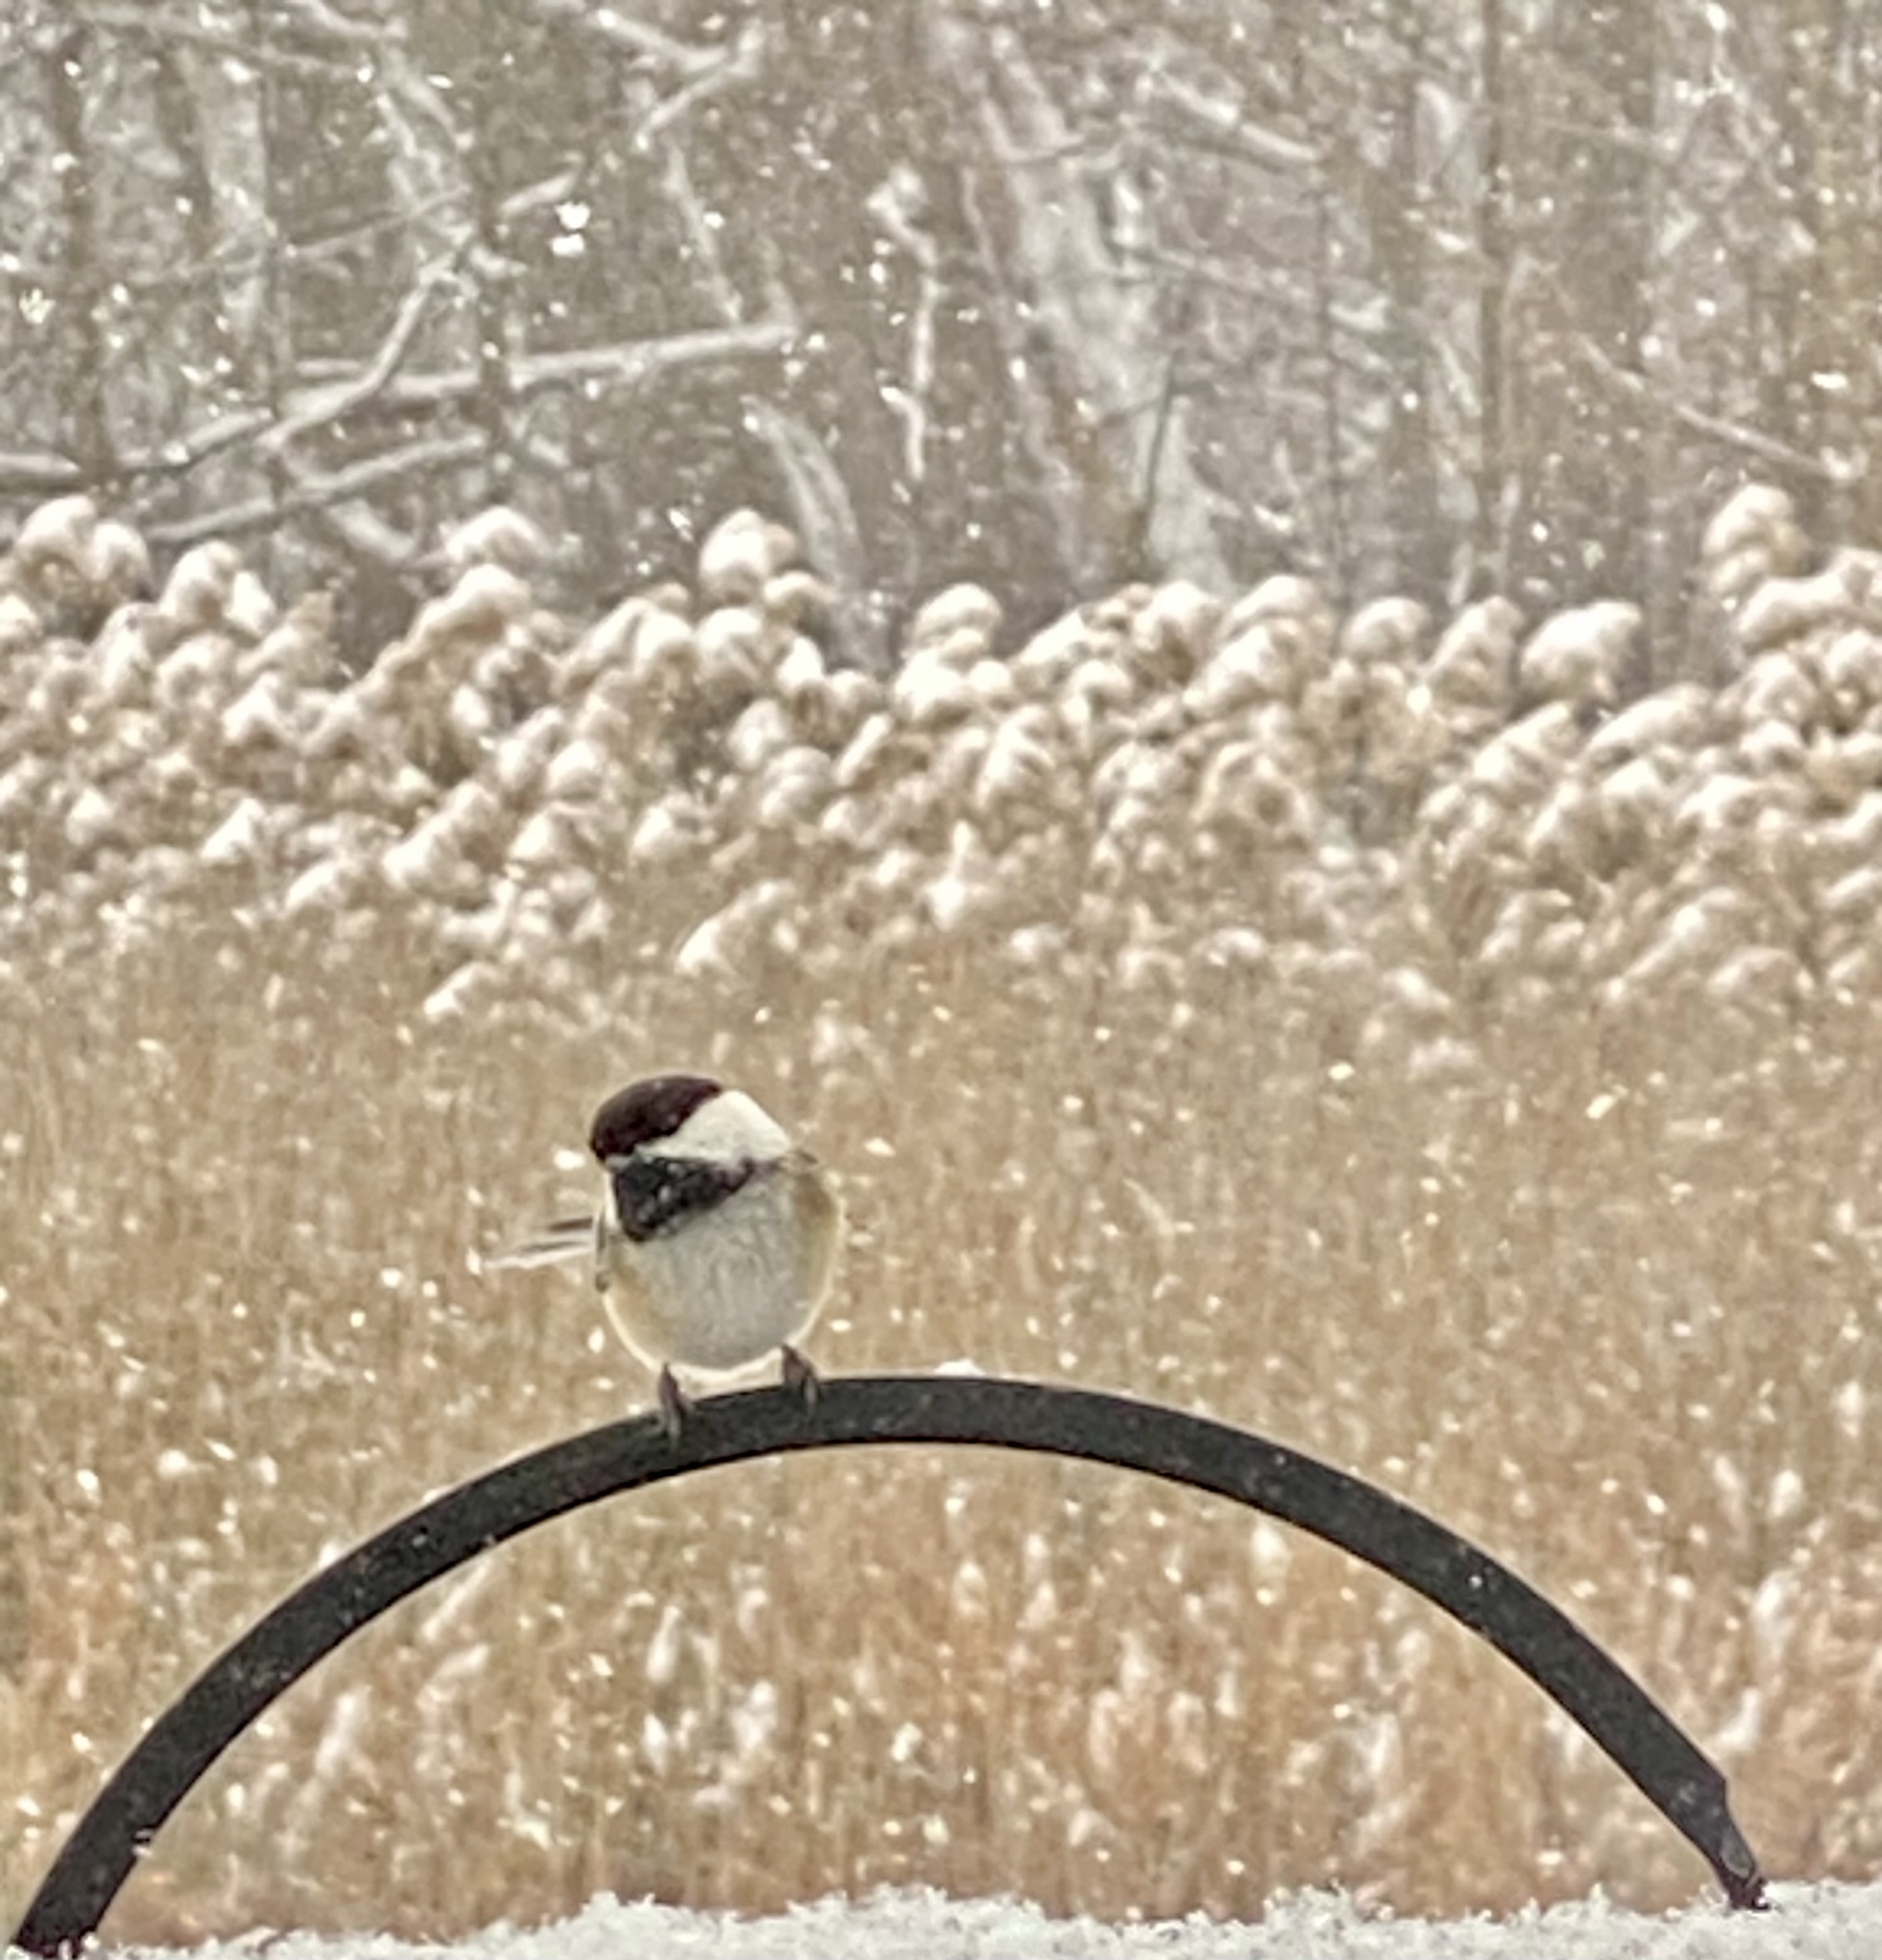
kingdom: Animalia
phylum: Chordata
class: Aves
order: Passeriformes
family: Paridae
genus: Poecile
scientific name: Poecile atricapillus
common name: Black-capped chickadee
